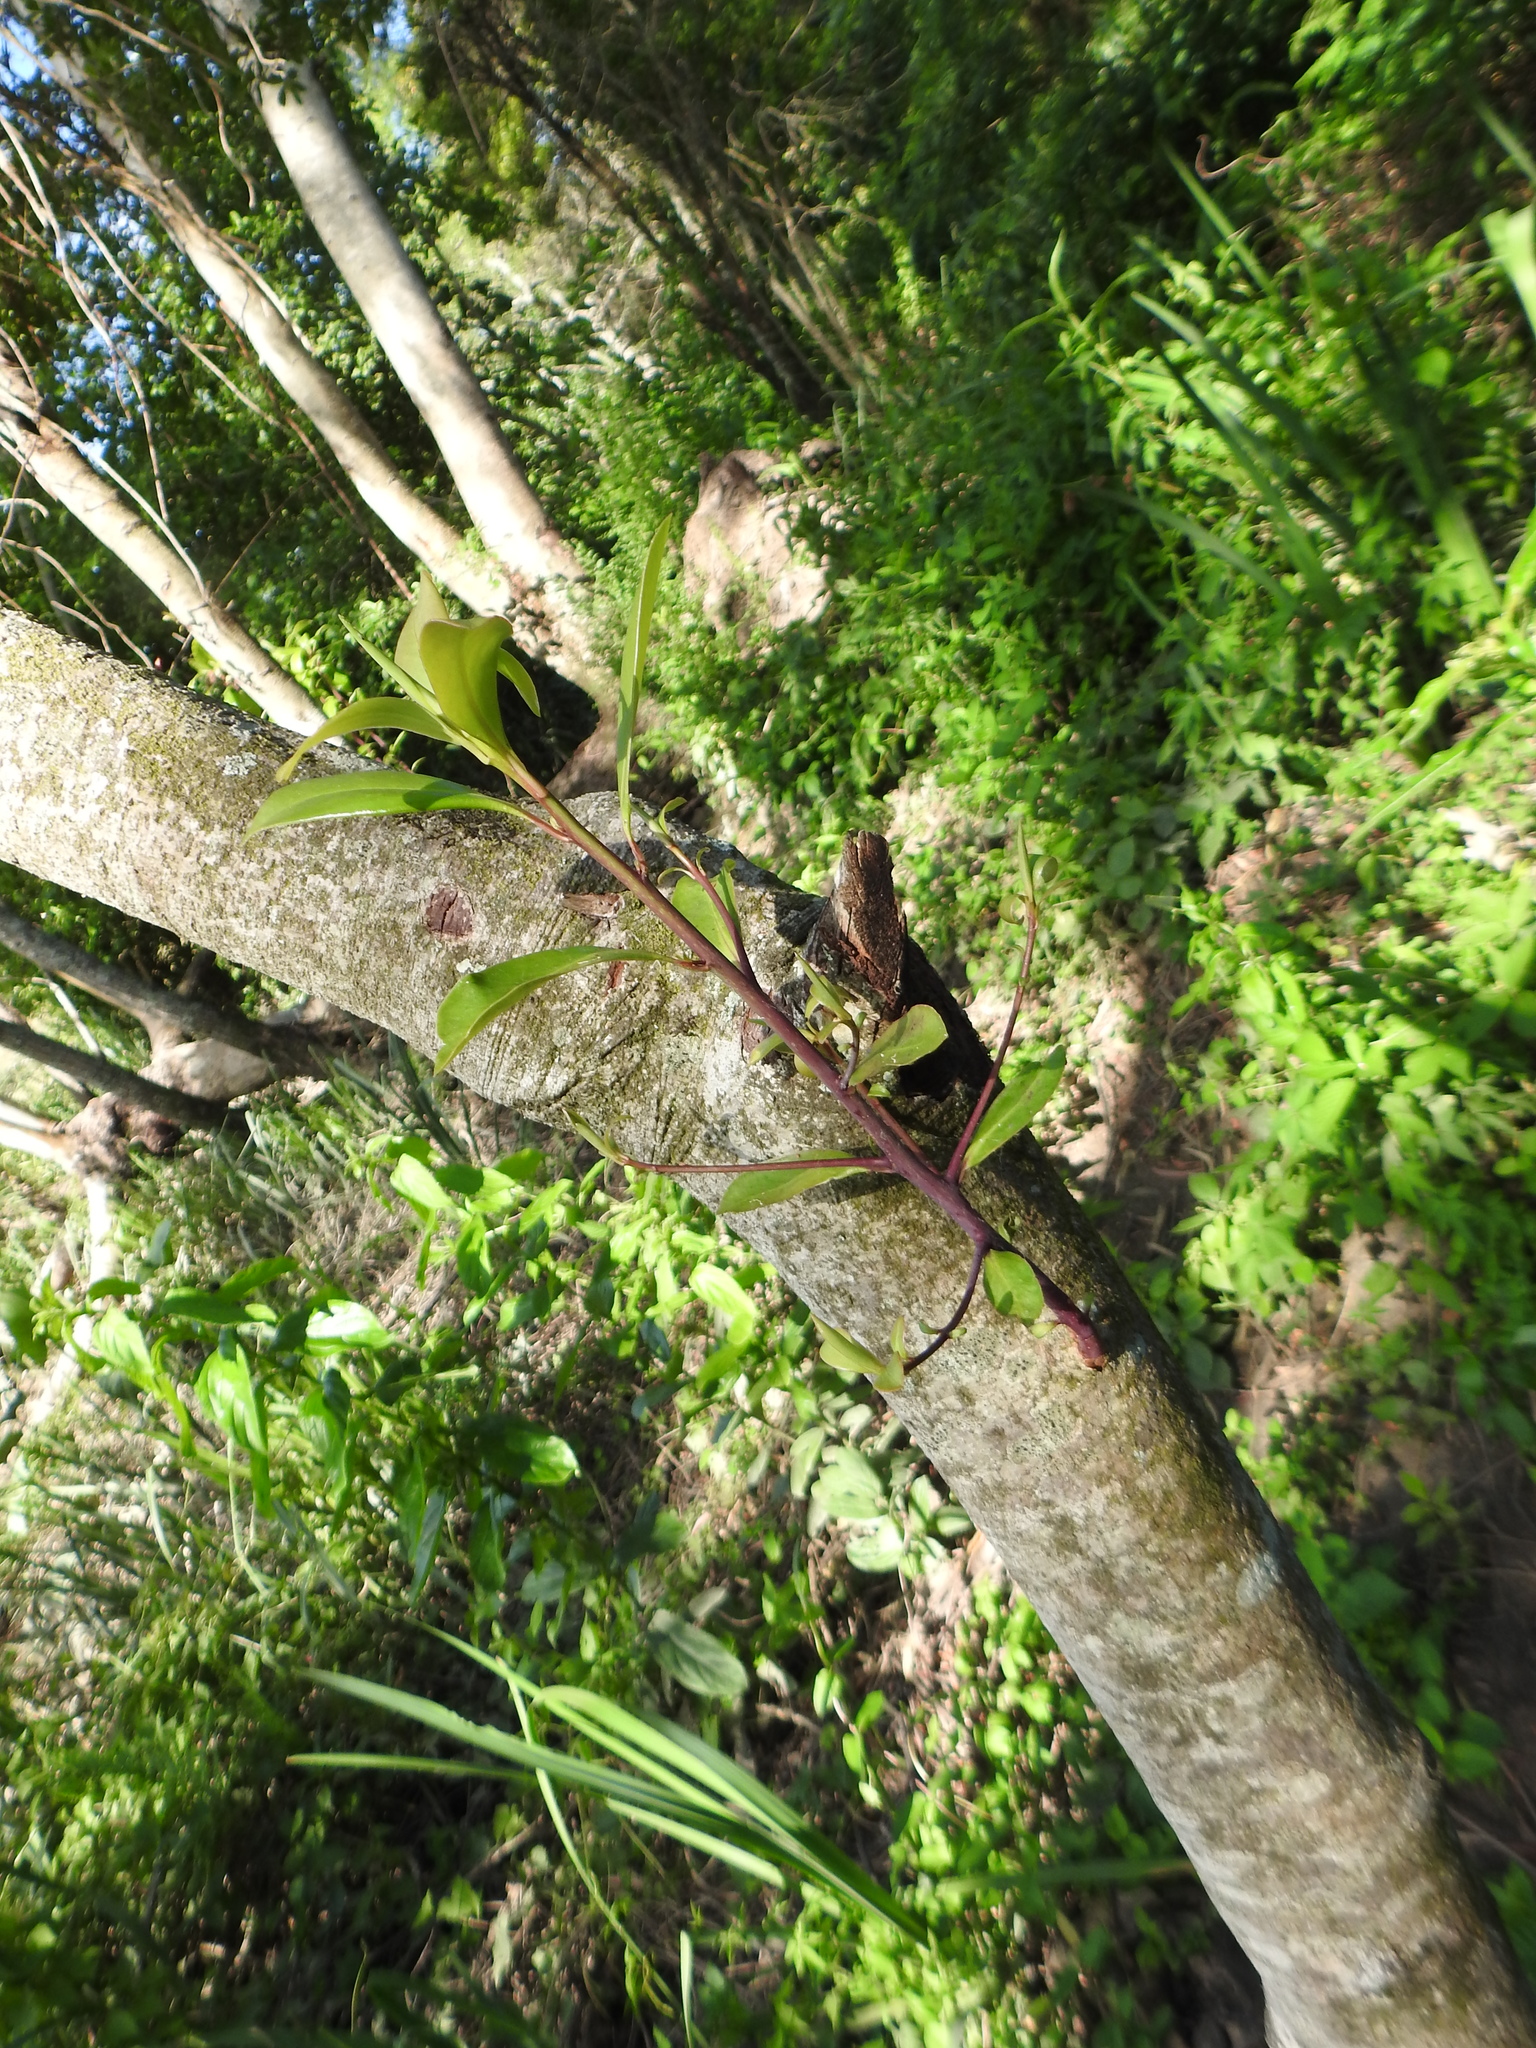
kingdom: Plantae
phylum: Tracheophyta
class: Magnoliopsida
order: Ericales
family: Primulaceae
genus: Myrsine
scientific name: Myrsine lorentziana
